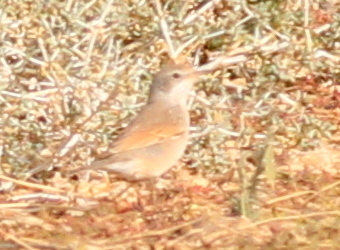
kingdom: Animalia
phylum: Chordata
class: Aves
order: Passeriformes
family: Sylviidae
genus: Sylvia
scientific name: Sylvia conspicillata
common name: Spectacled warbler
